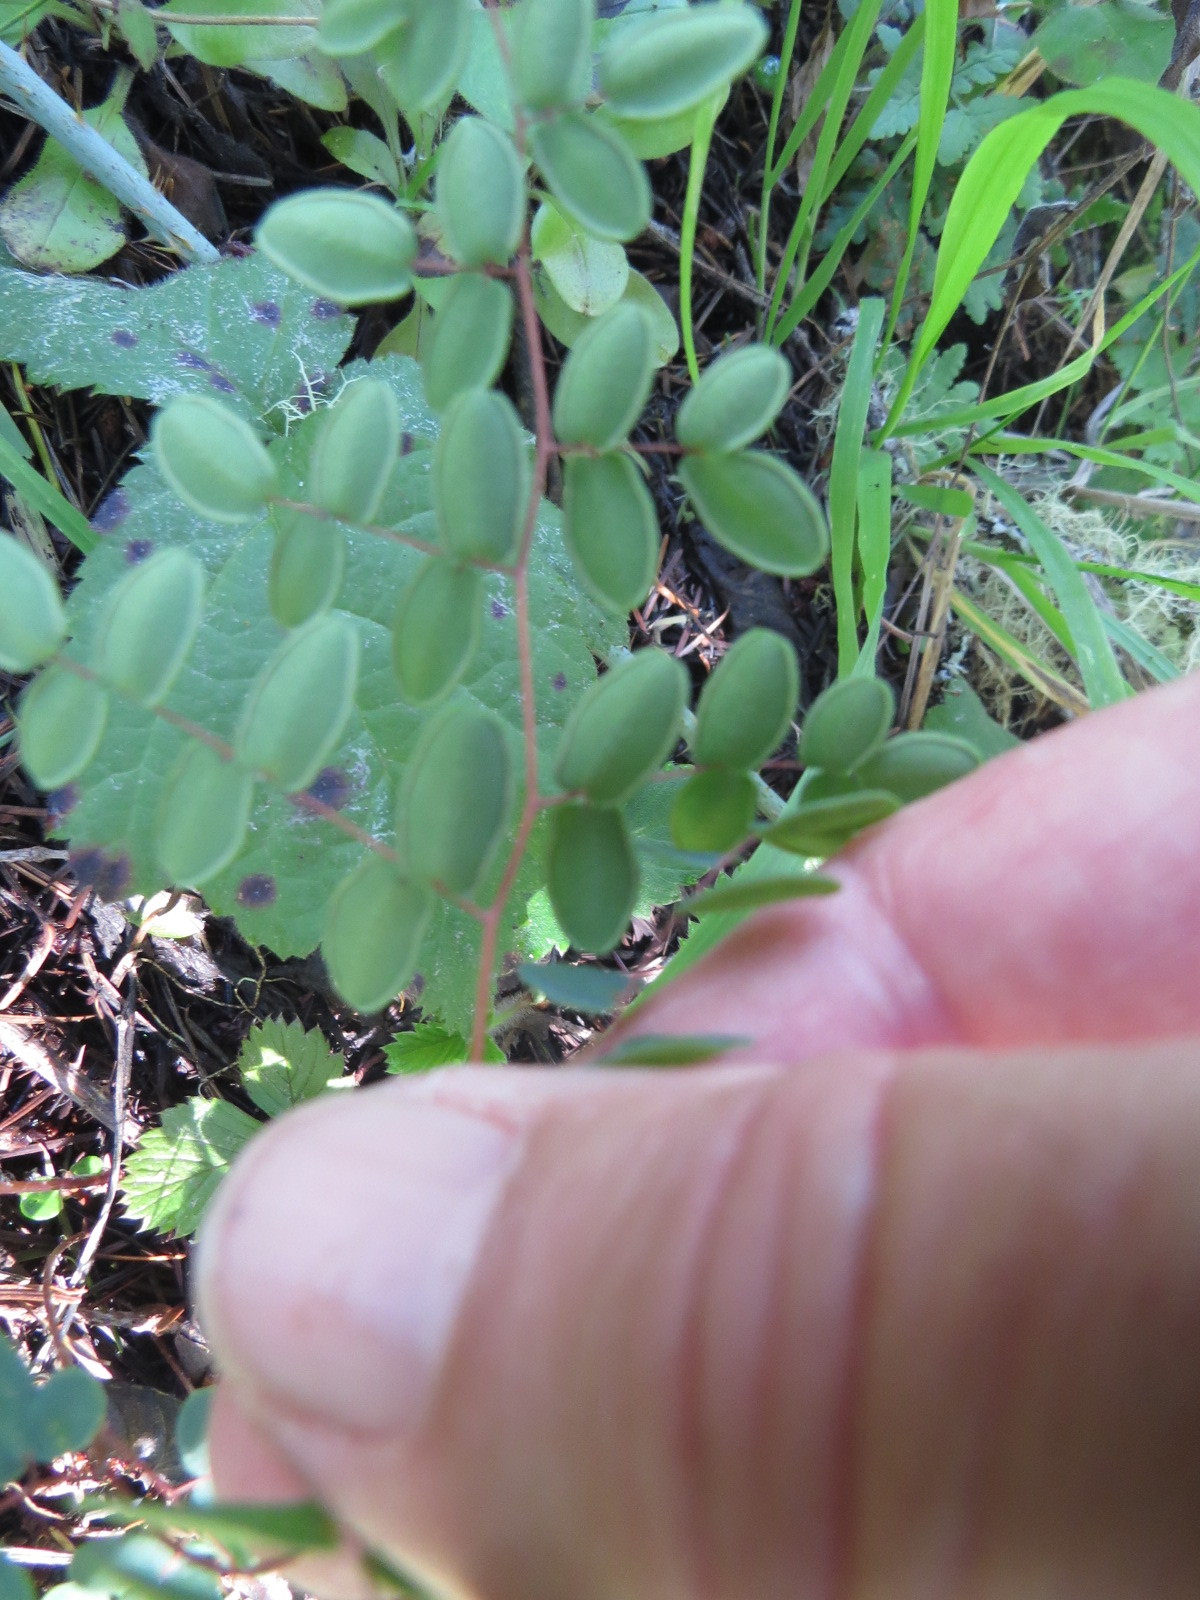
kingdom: Plantae
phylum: Tracheophyta
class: Polypodiopsida
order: Polypodiales
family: Pteridaceae
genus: Pellaea
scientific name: Pellaea andromedifolia
